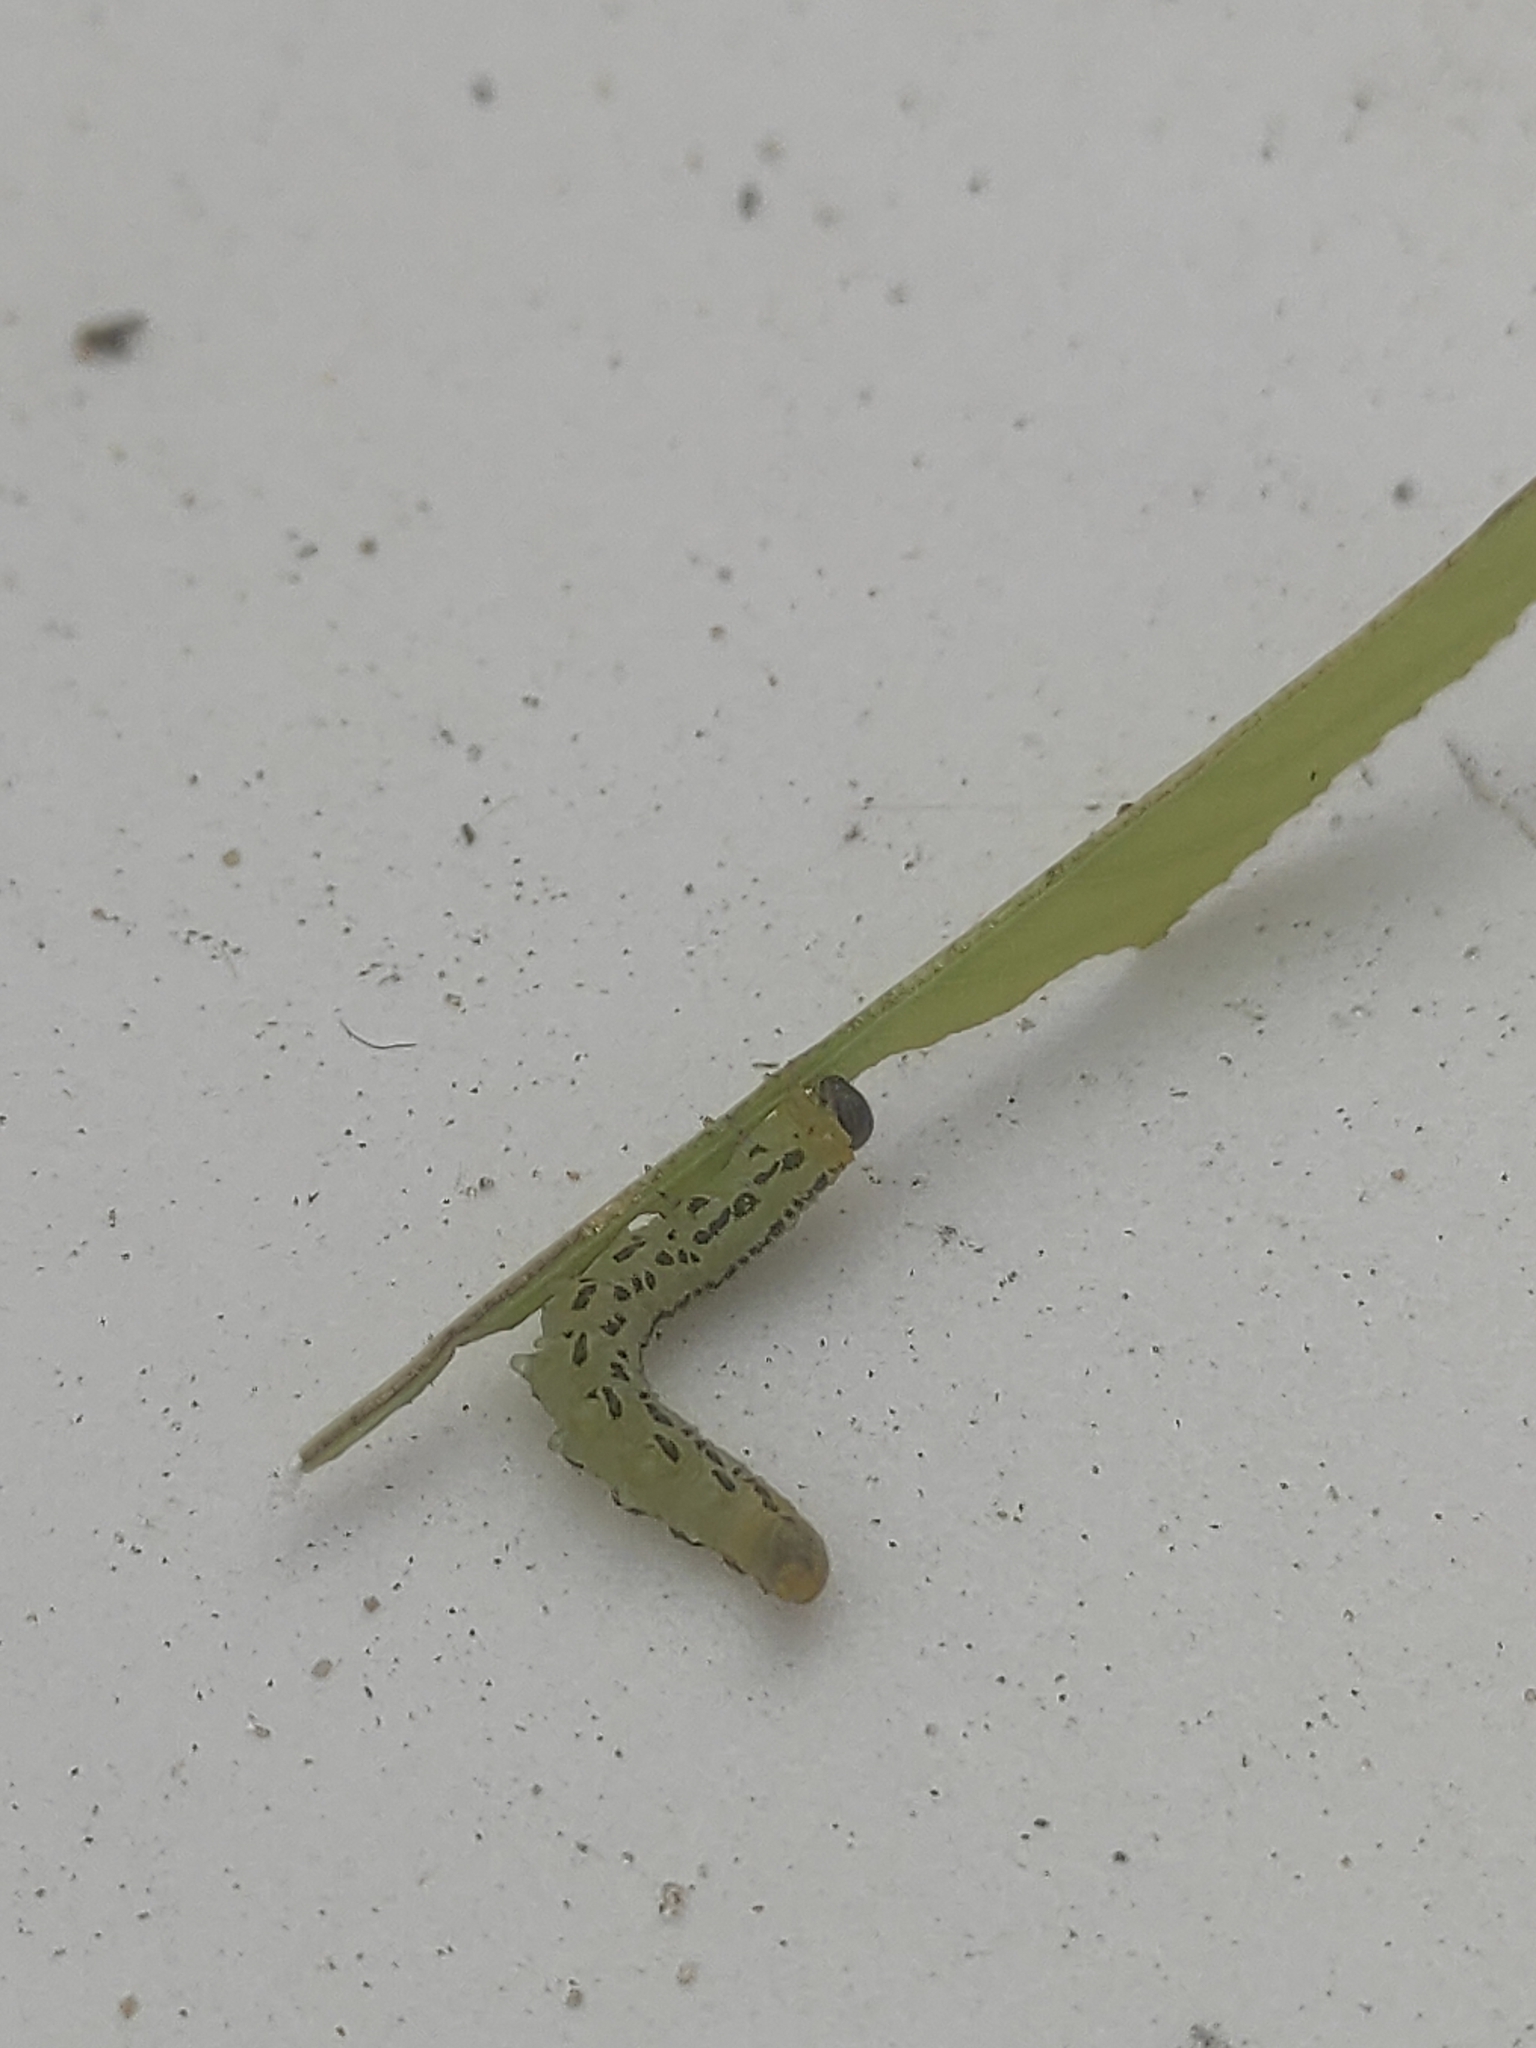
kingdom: Animalia
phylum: Arthropoda
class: Insecta
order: Hymenoptera
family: Tenthredinidae
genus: Nematus
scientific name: Nematus pavidus
